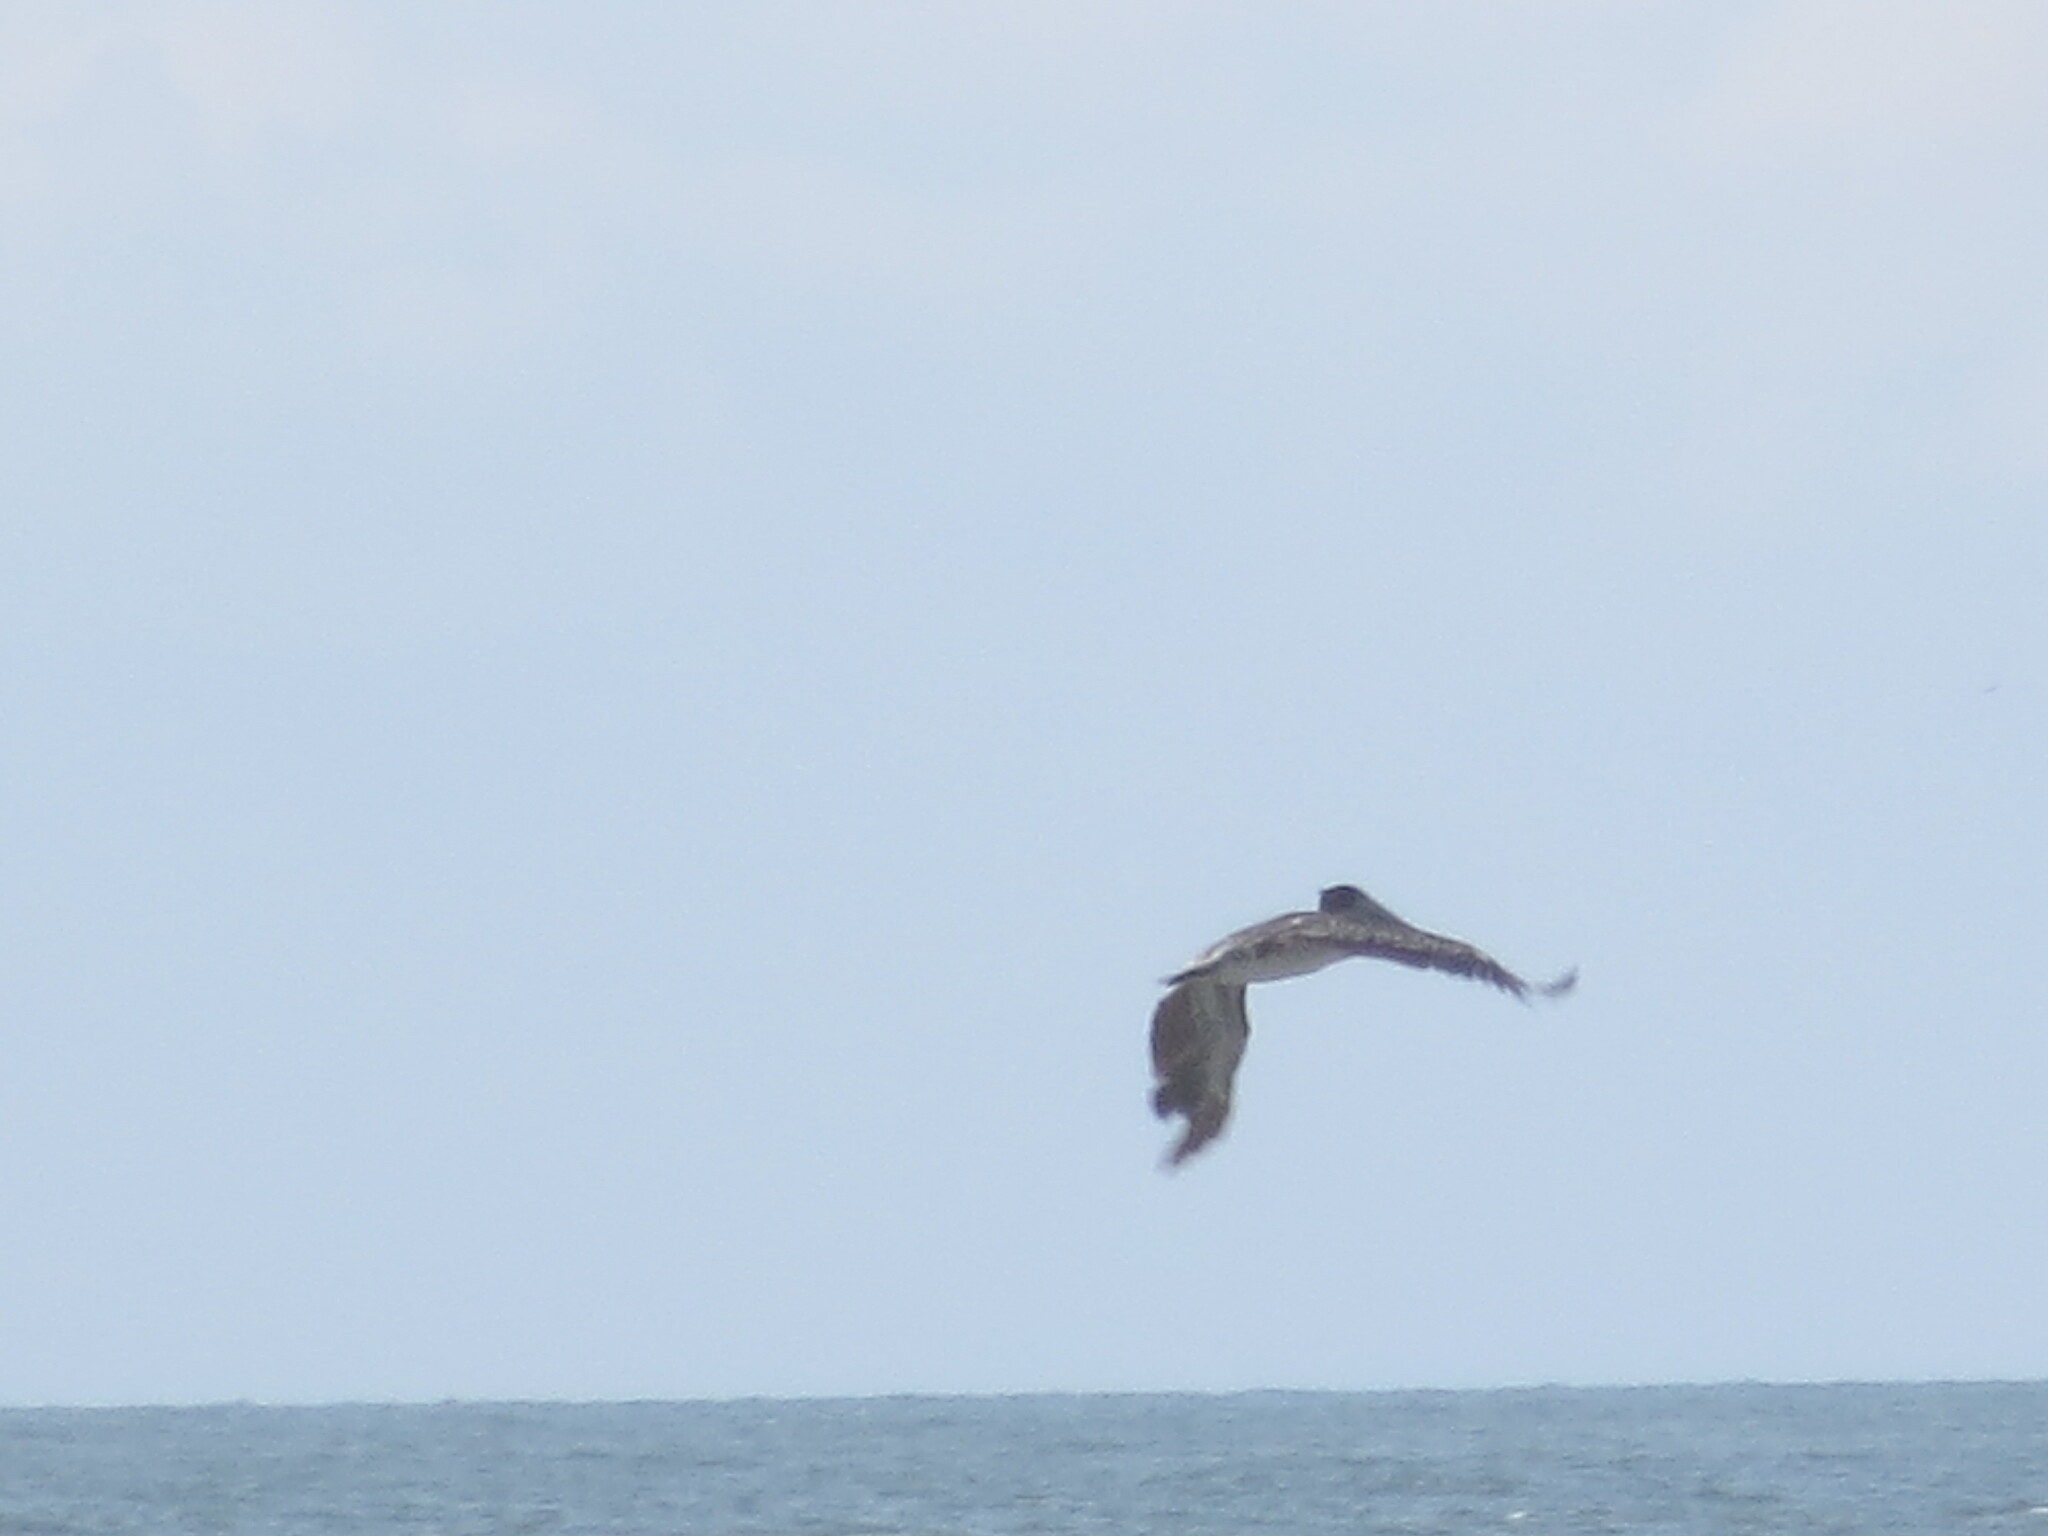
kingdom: Animalia
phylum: Chordata
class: Aves
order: Pelecaniformes
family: Pelecanidae
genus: Pelecanus
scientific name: Pelecanus occidentalis
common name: Brown pelican
